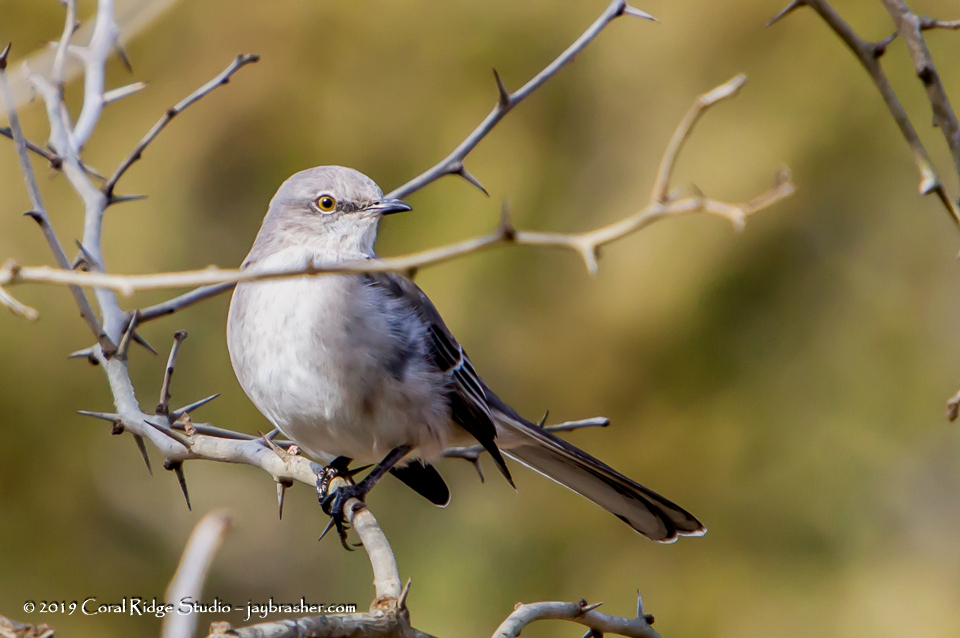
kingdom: Animalia
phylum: Chordata
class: Aves
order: Passeriformes
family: Mimidae
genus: Mimus
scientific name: Mimus polyglottos
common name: Northern mockingbird
